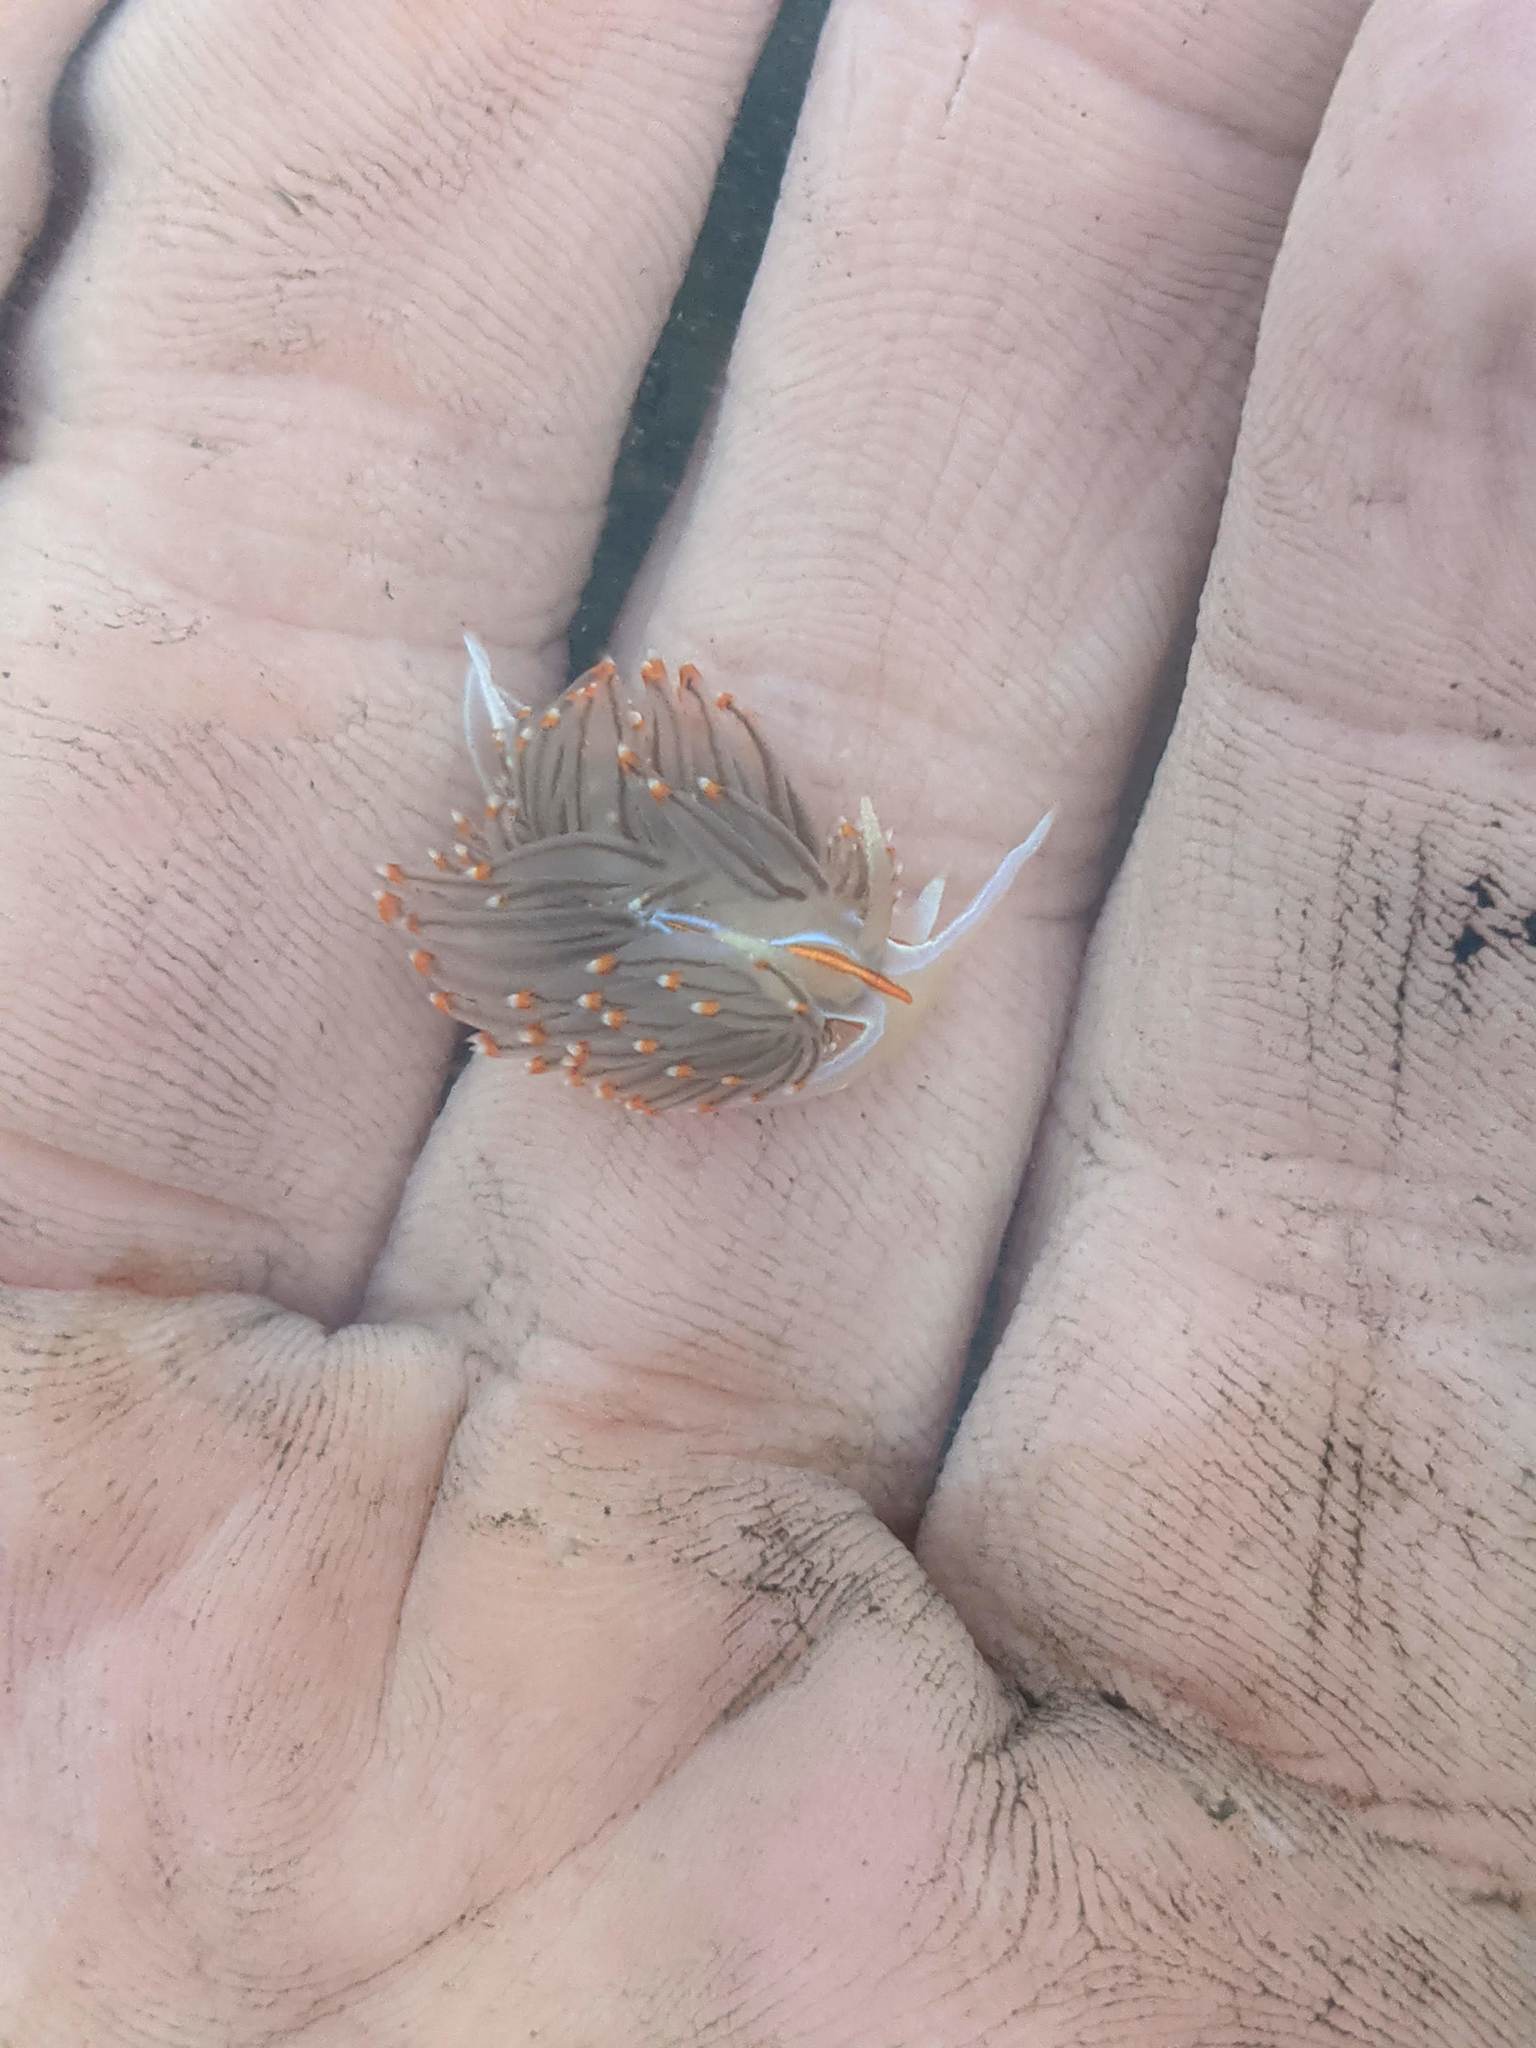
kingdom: Animalia
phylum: Mollusca
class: Gastropoda
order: Nudibranchia
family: Myrrhinidae
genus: Hermissenda
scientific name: Hermissenda crassicornis
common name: Hermissenda
